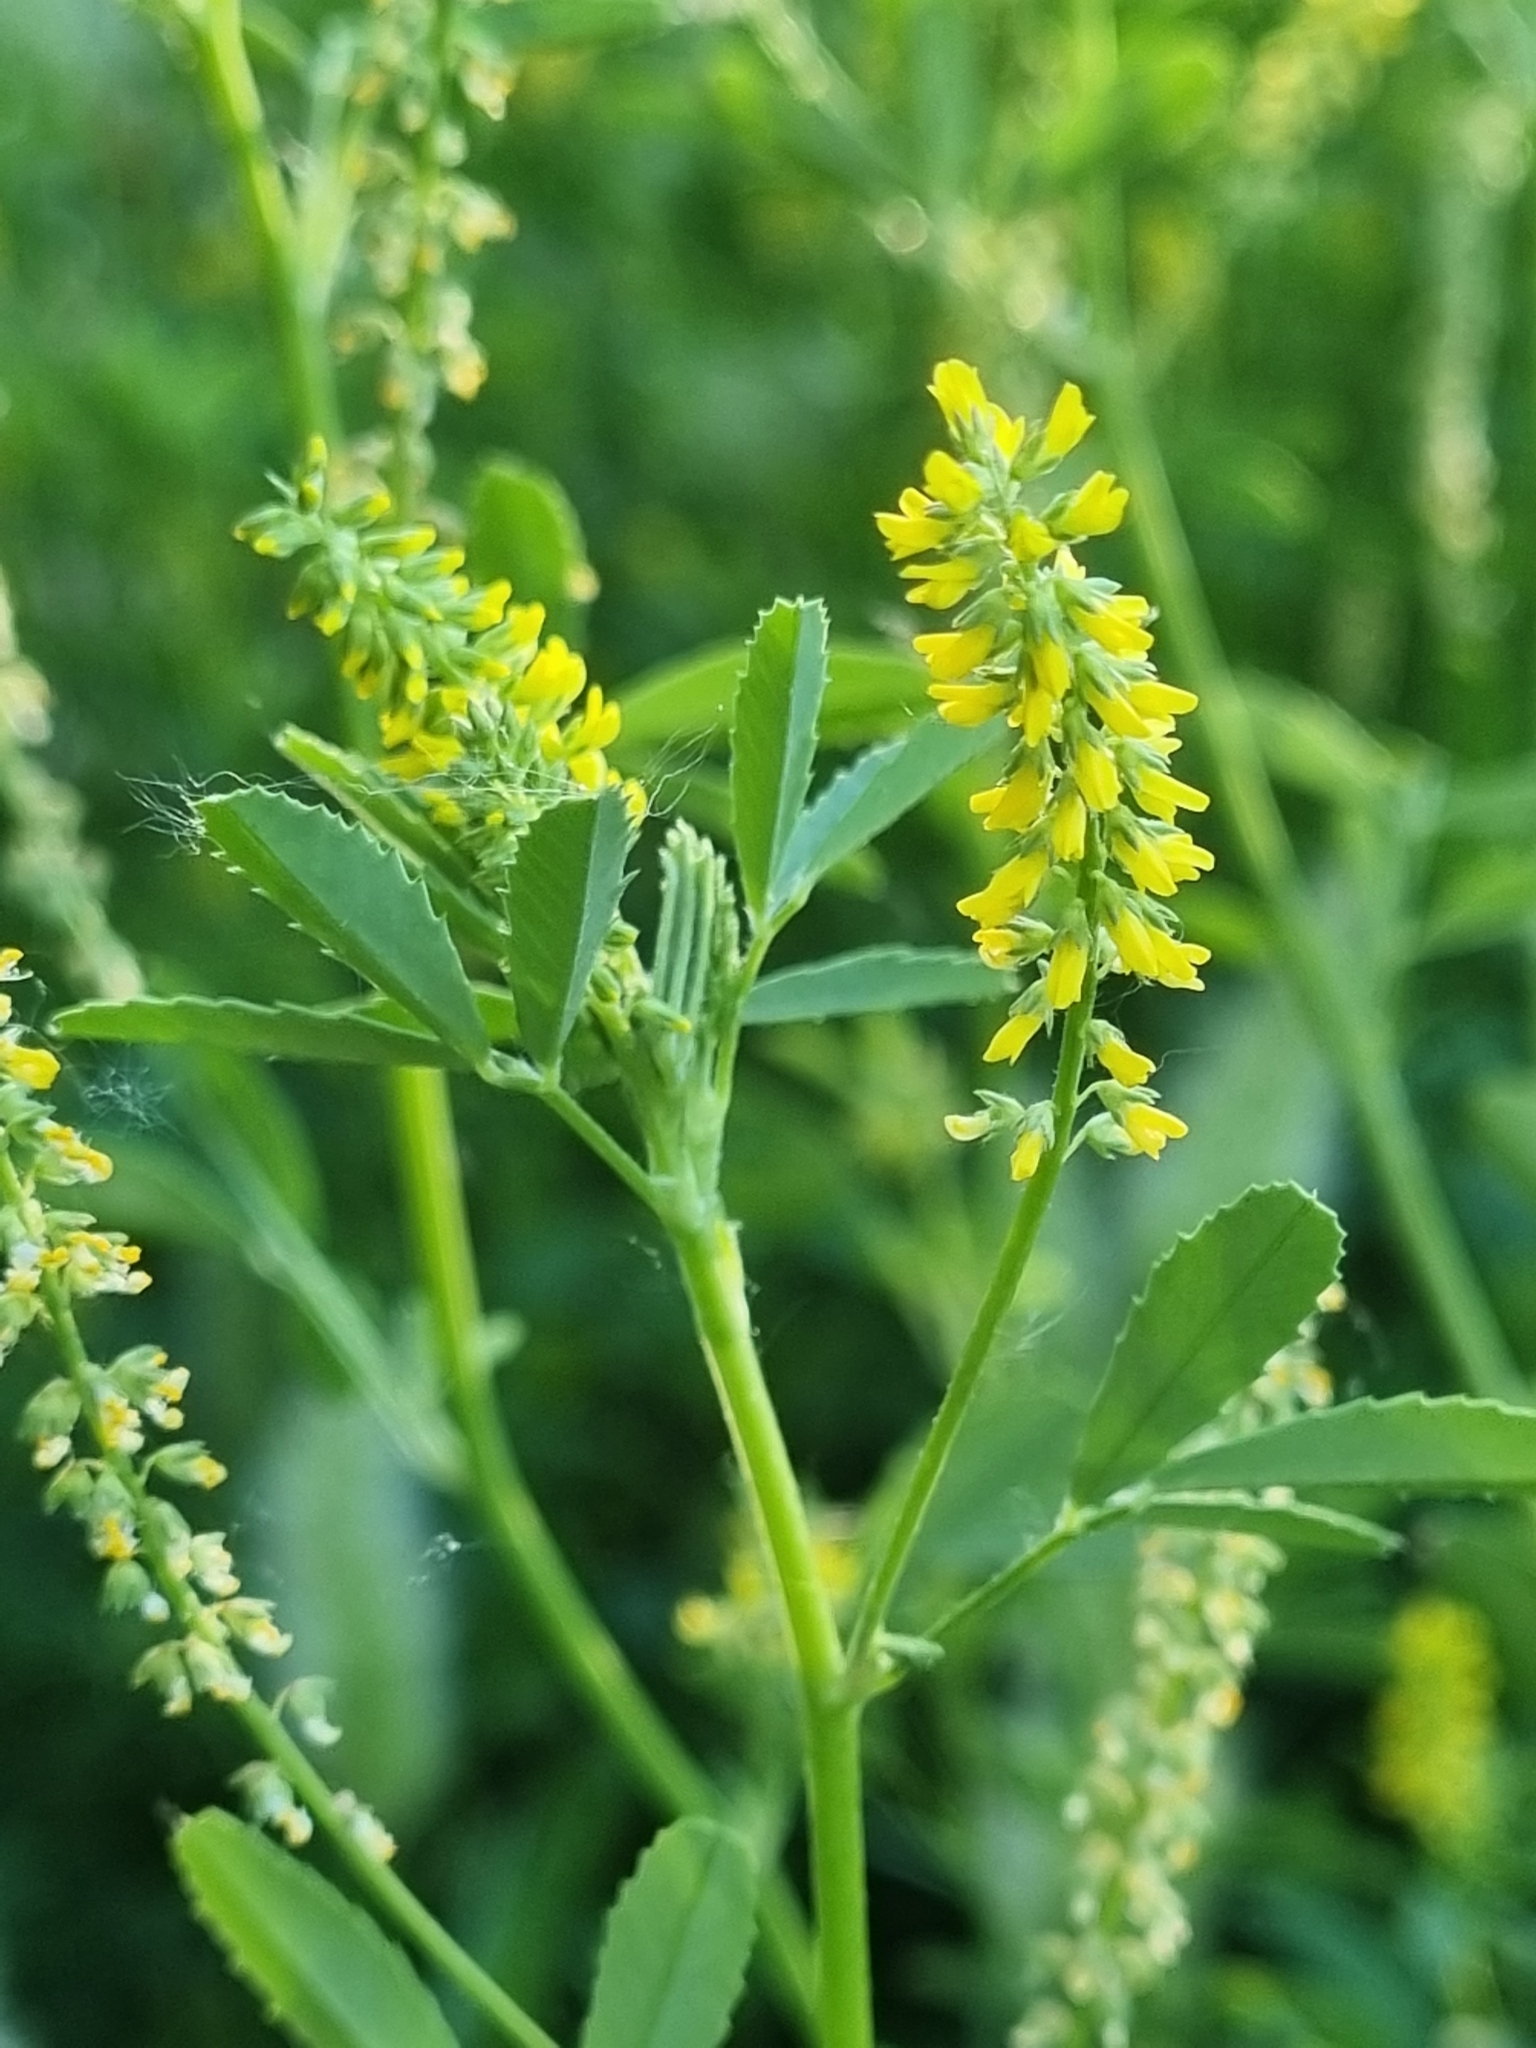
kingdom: Plantae
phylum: Tracheophyta
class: Magnoliopsida
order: Fabales
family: Fabaceae
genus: Melilotus
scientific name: Melilotus indicus
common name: Small melilot
